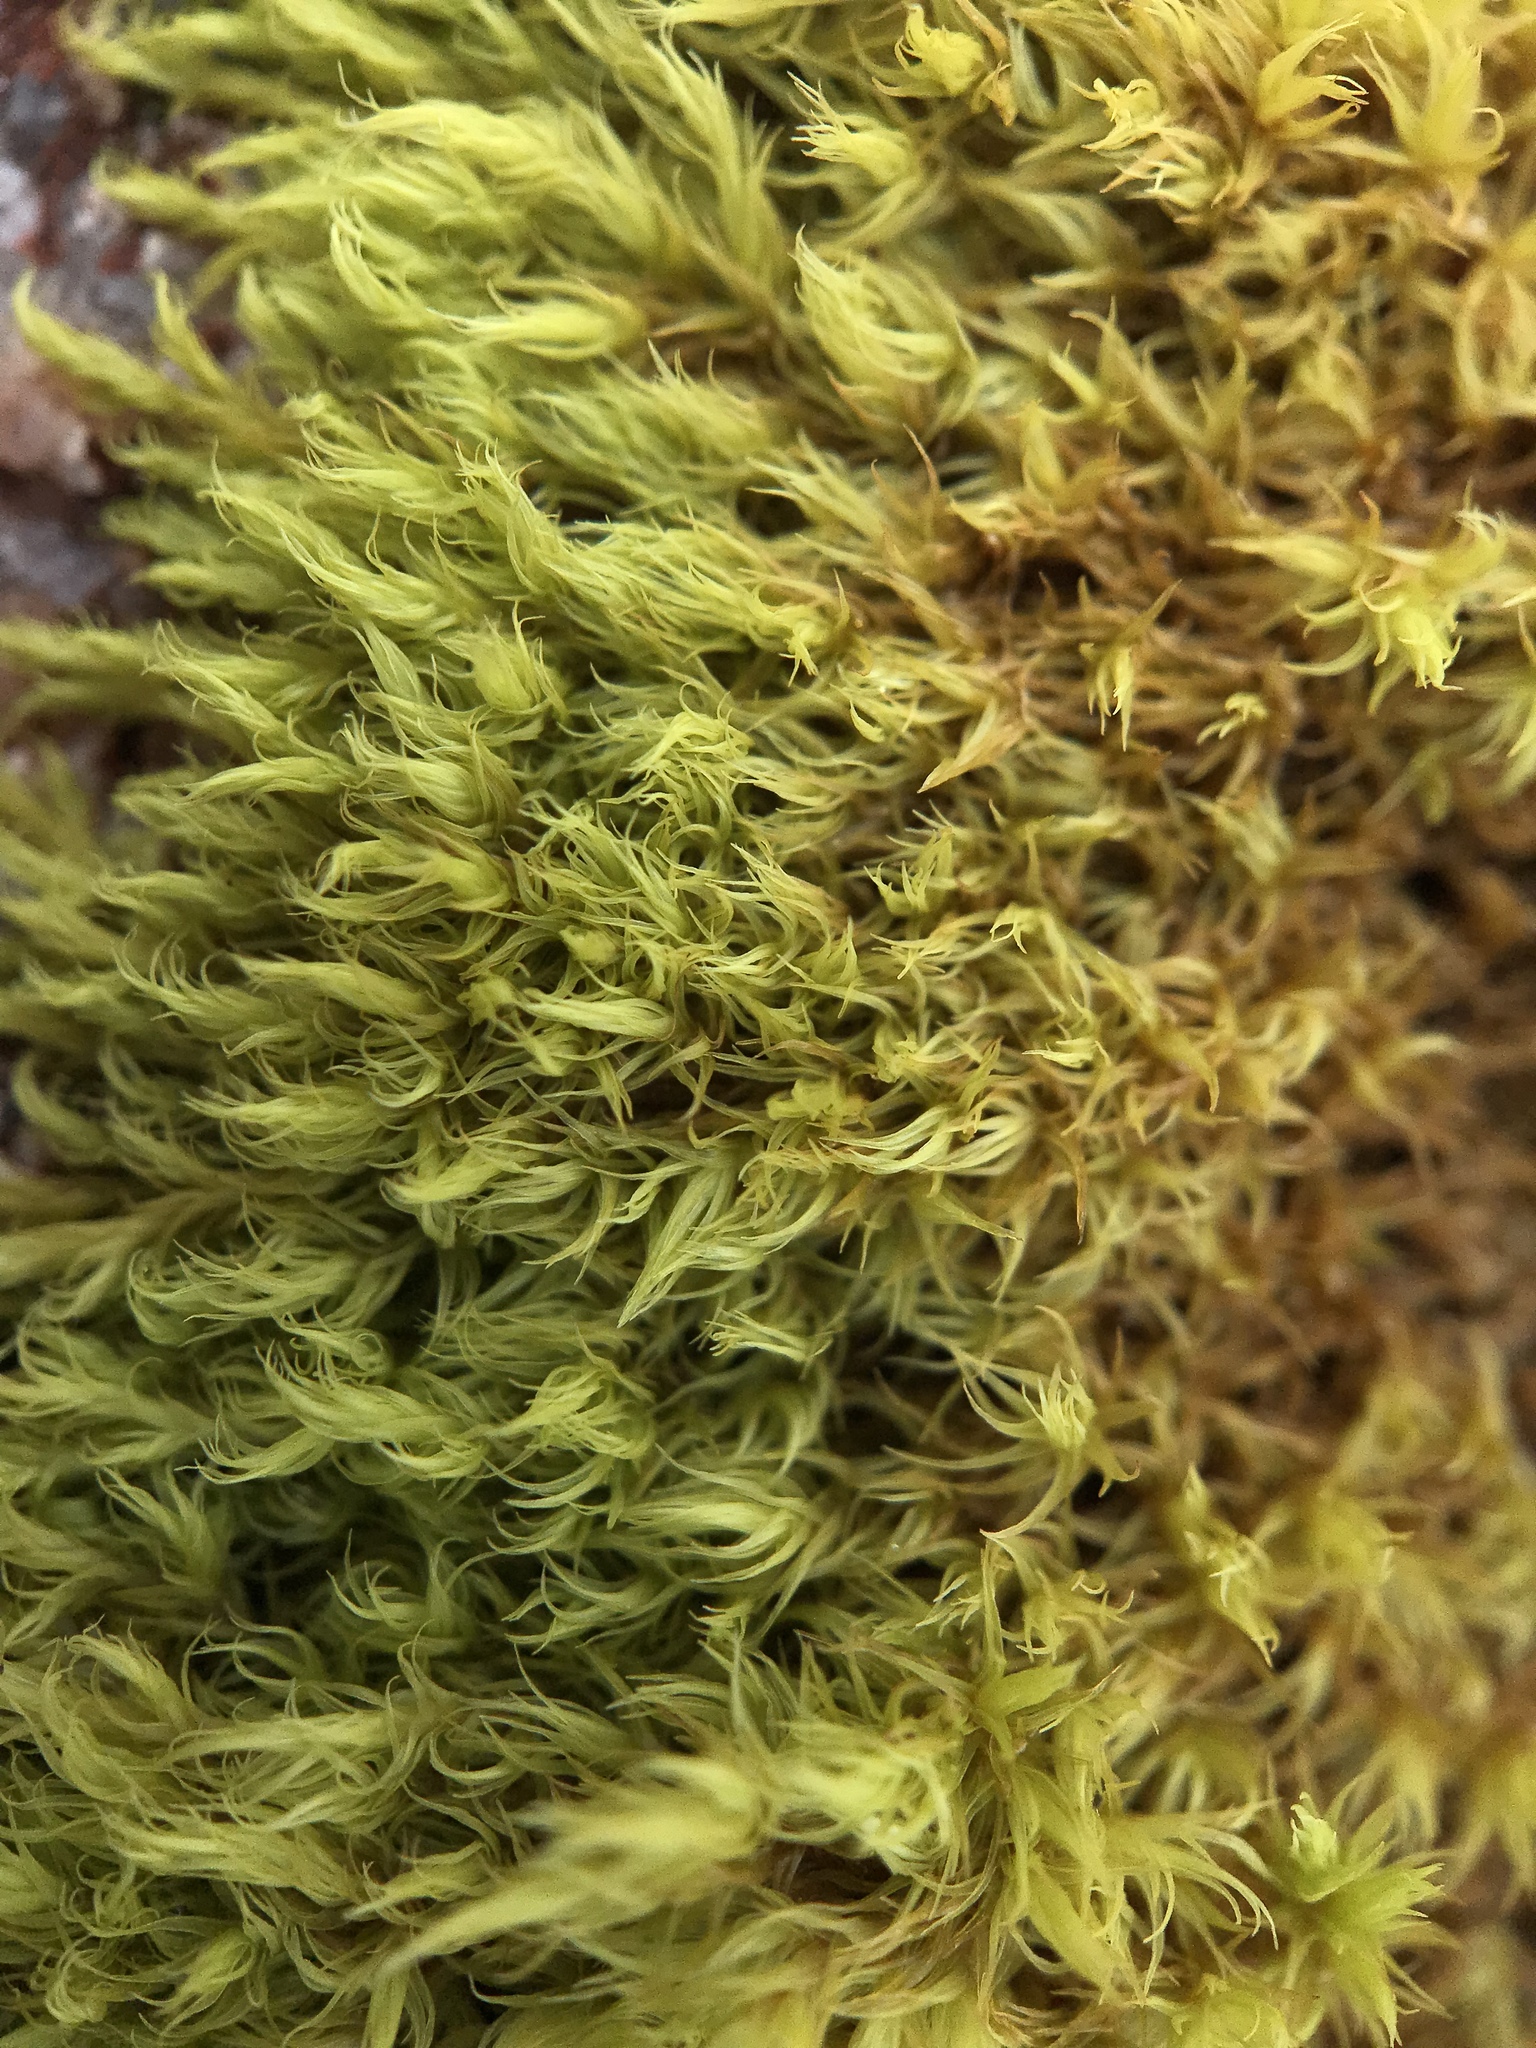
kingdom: Plantae
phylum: Bryophyta
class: Bryopsida
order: Grimmiales
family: Grimmiaceae
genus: Dilutineuron
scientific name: Dilutineuron fasciculare
